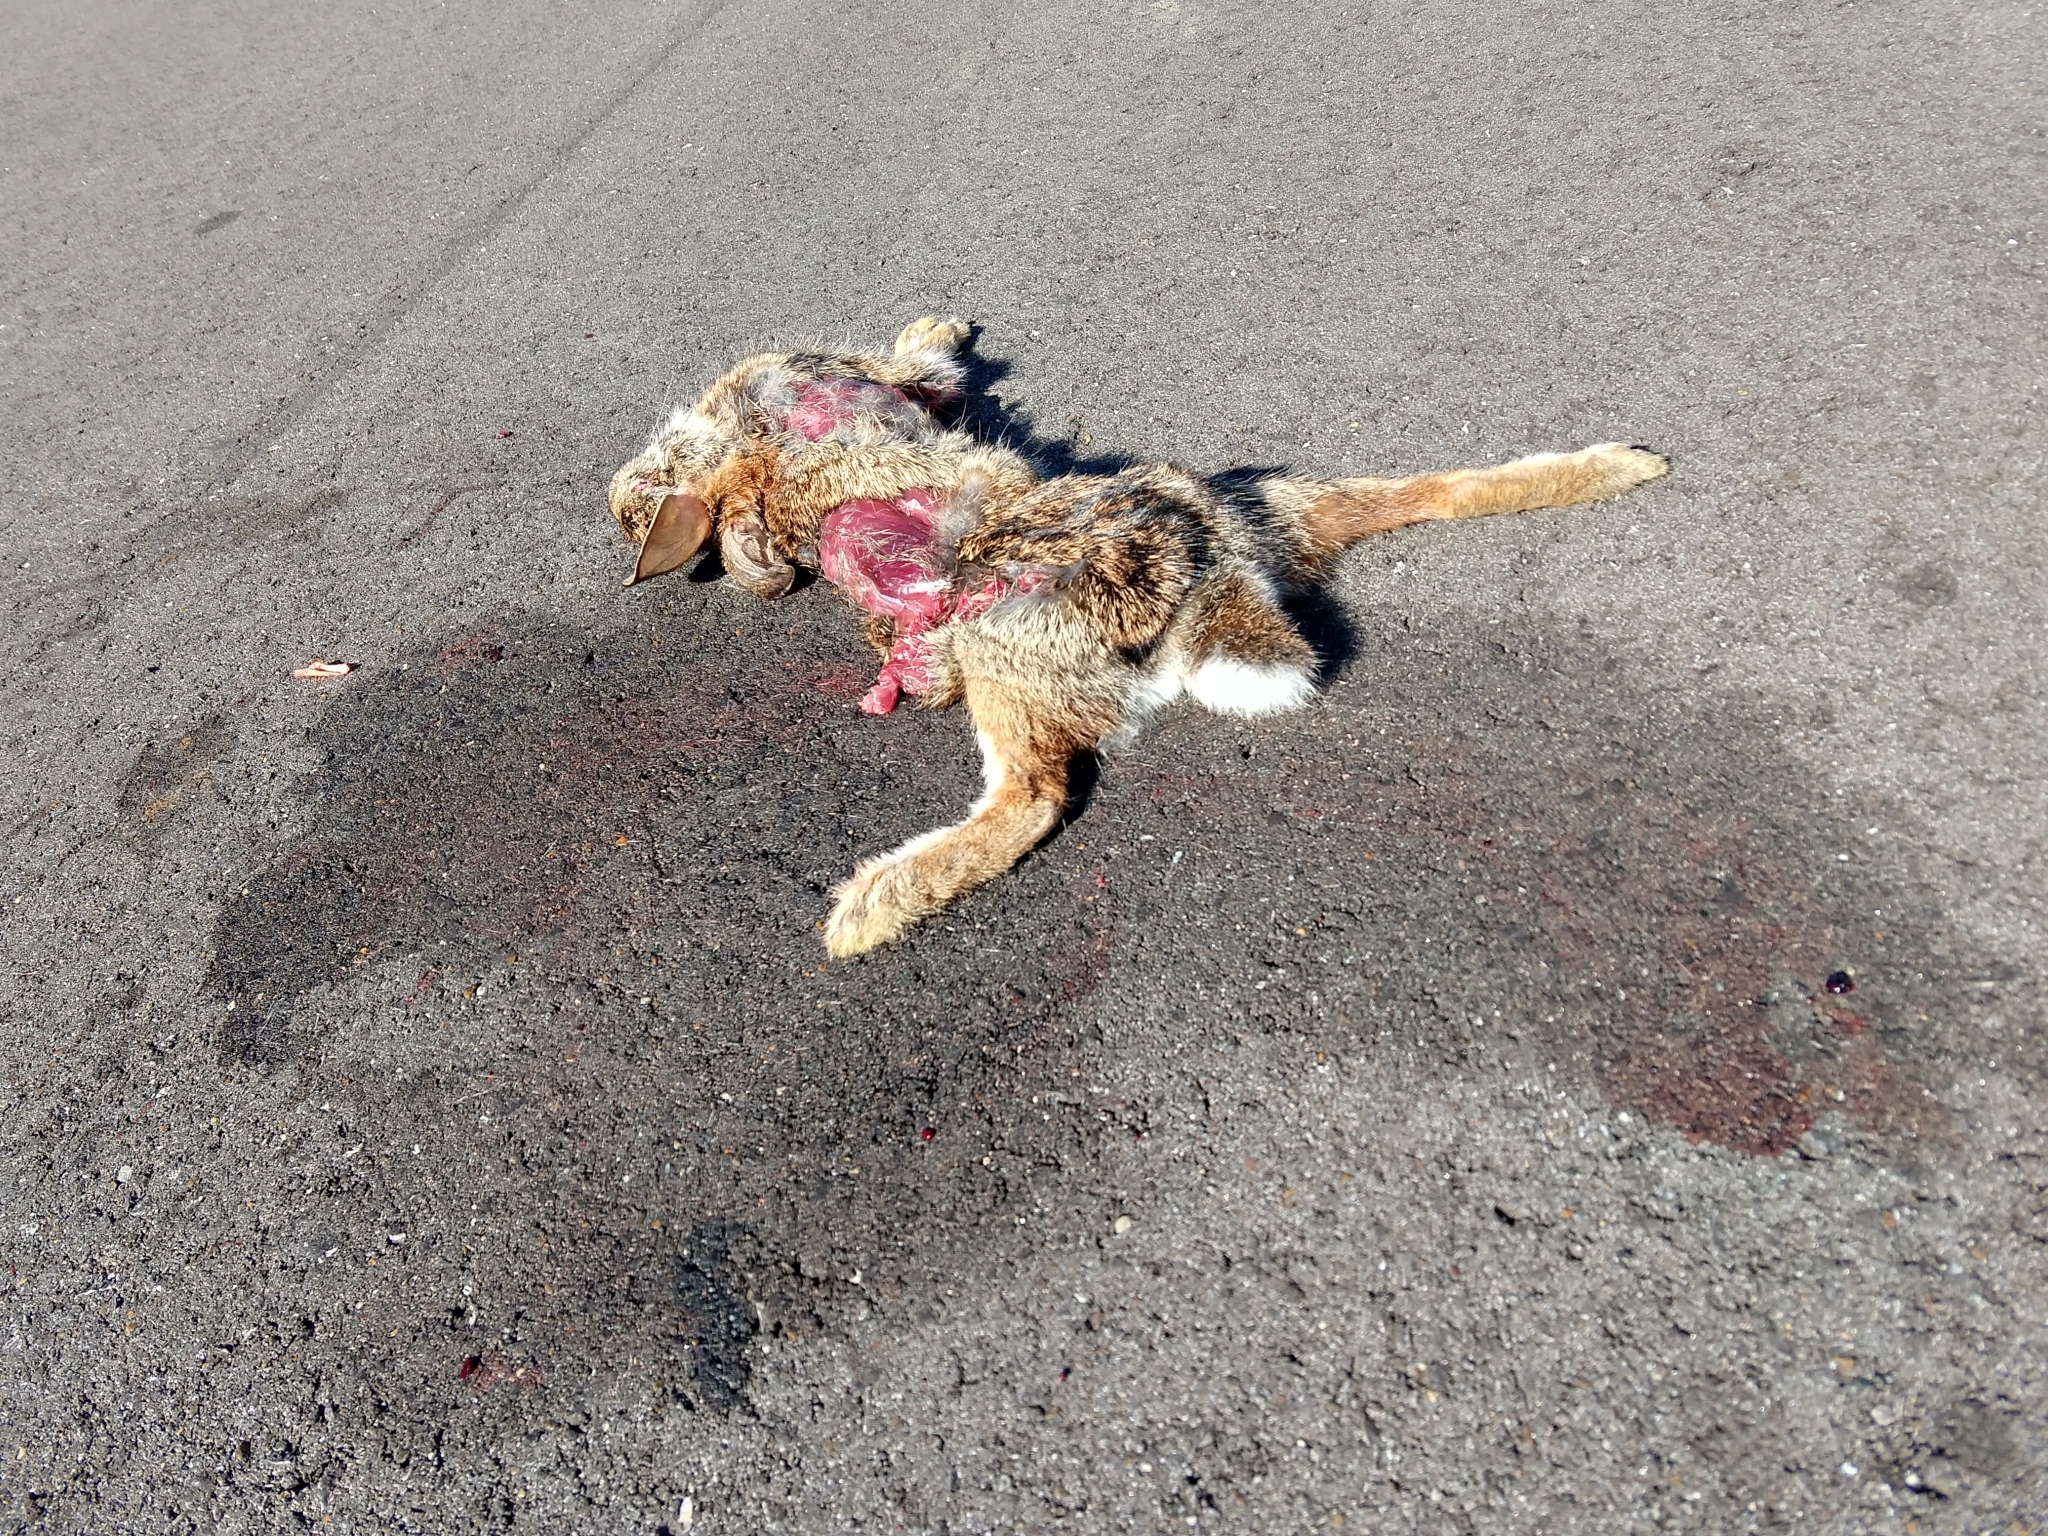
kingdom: Animalia
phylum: Chordata
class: Mammalia
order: Lagomorpha
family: Leporidae
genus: Sylvilagus
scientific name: Sylvilagus floridanus
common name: Eastern cottontail
